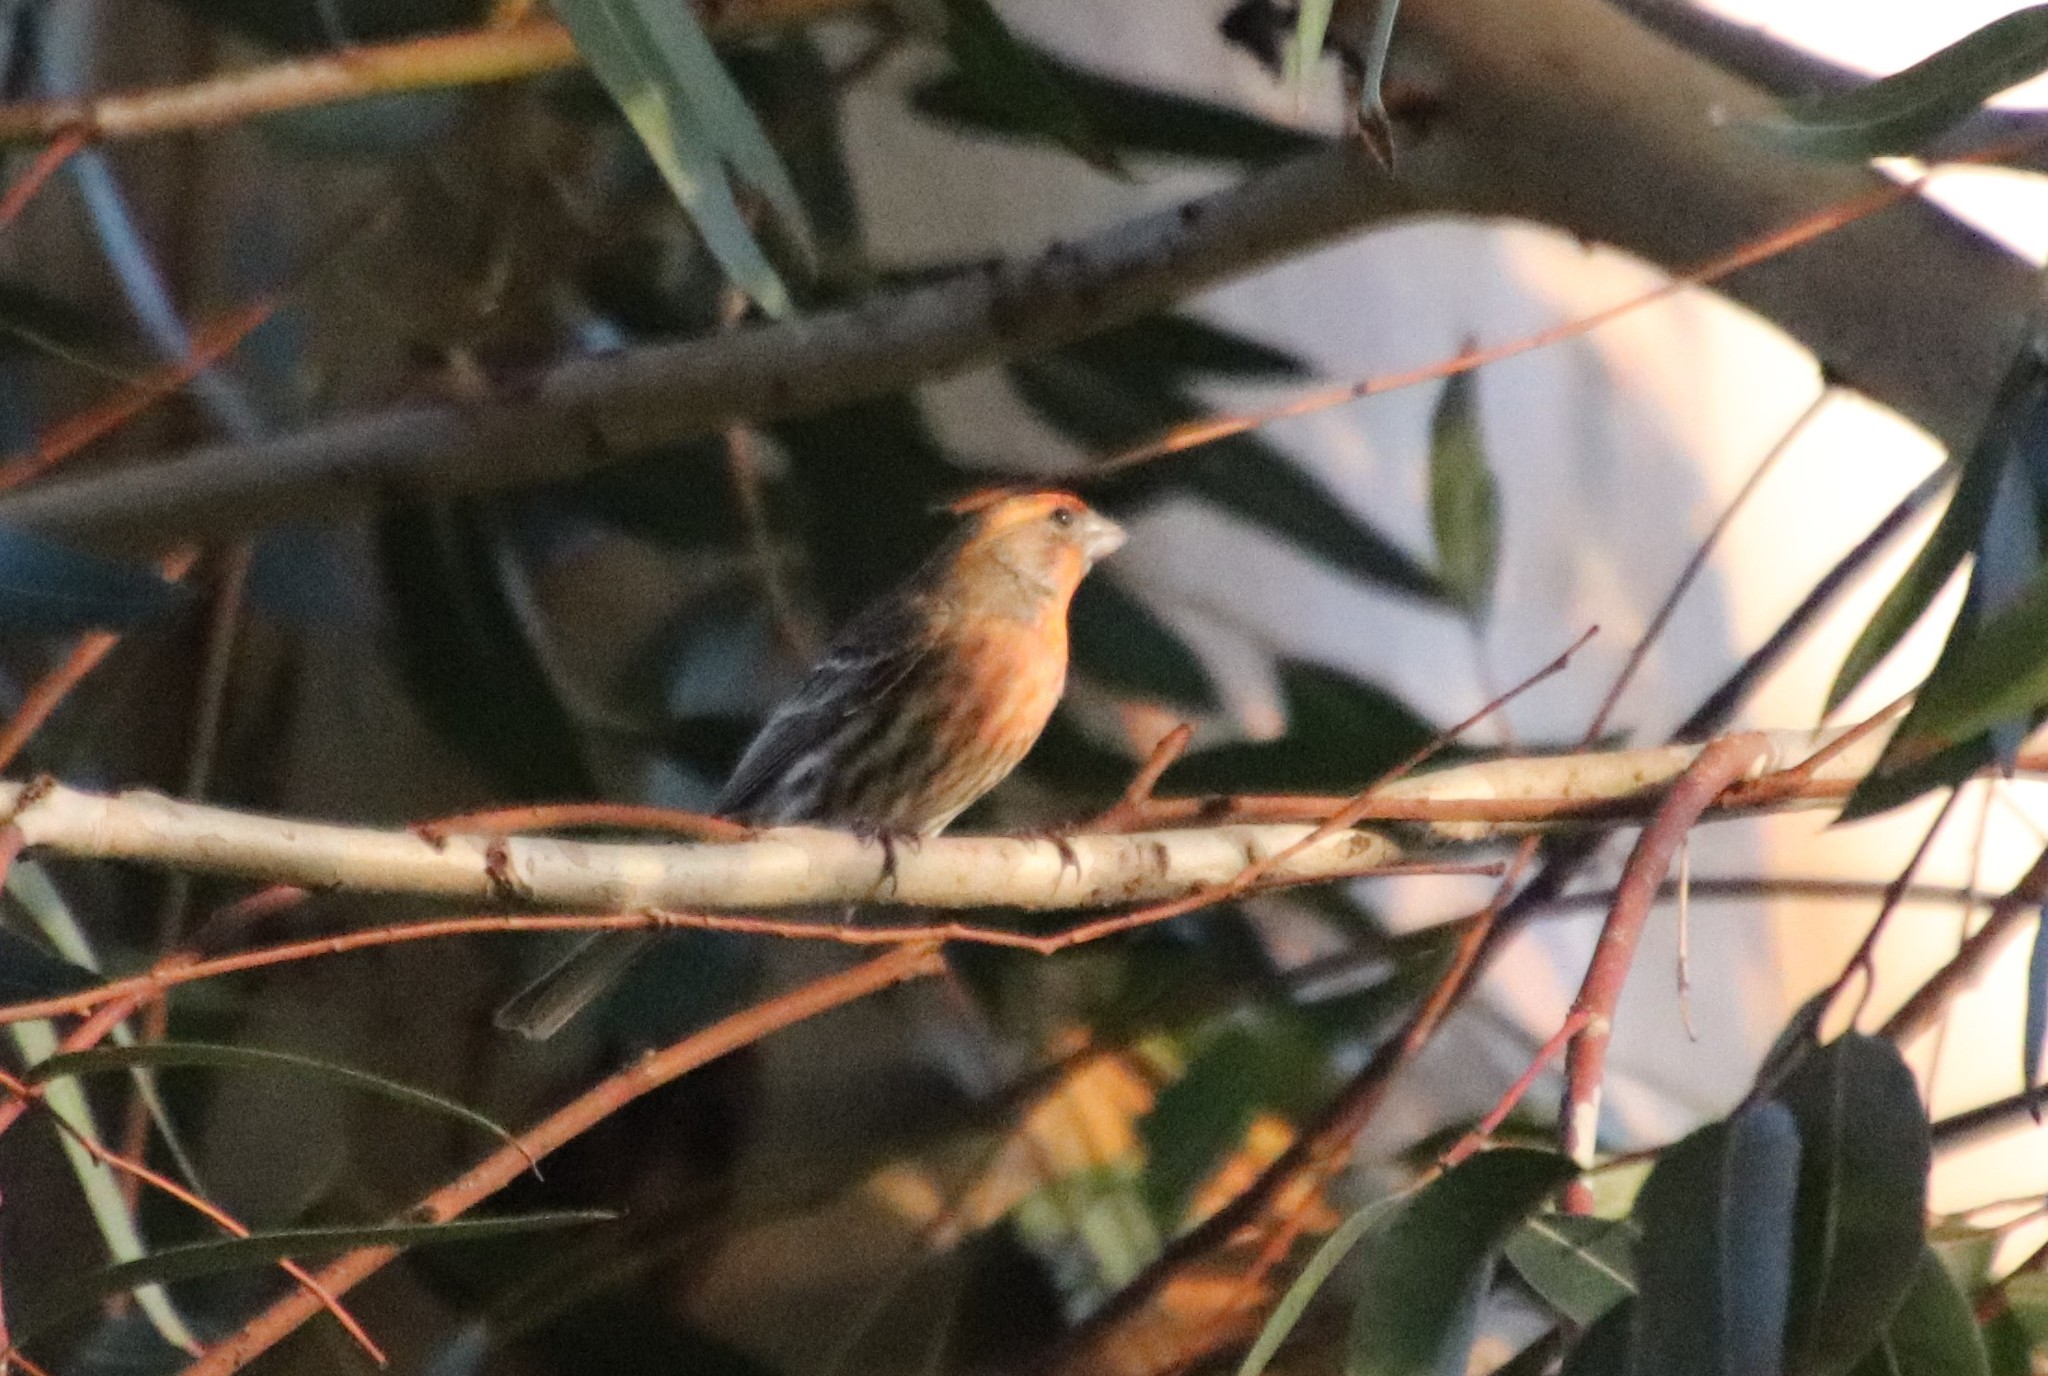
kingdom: Animalia
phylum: Chordata
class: Aves
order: Passeriformes
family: Fringillidae
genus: Haemorhous
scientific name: Haemorhous mexicanus
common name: House finch
